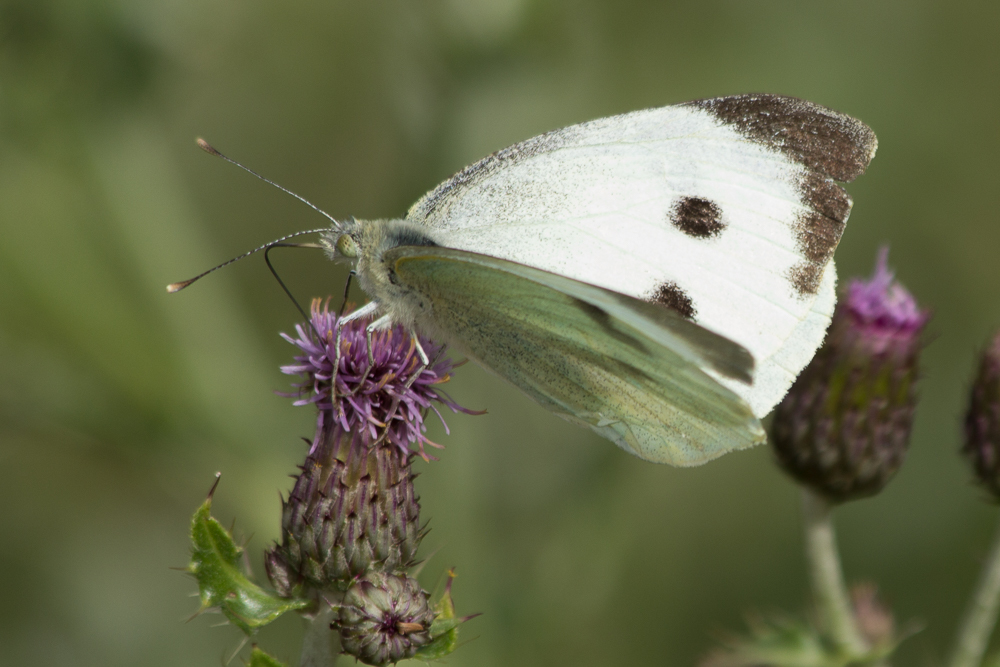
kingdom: Animalia
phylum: Arthropoda
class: Insecta
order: Lepidoptera
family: Pieridae
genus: Pieris
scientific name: Pieris brassicae
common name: Large white
